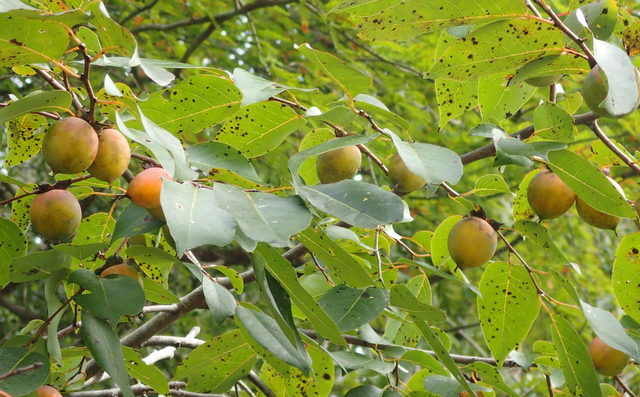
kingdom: Plantae
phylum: Tracheophyta
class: Magnoliopsida
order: Ericales
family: Ebenaceae
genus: Diospyros
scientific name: Diospyros virginiana
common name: Persimmon
